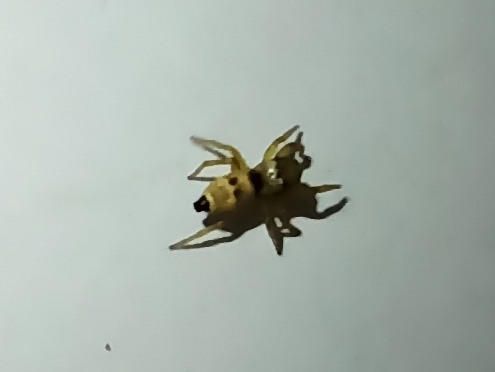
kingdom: Animalia
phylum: Arthropoda
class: Arachnida
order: Araneae
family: Salticidae
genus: Heliophanus
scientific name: Heliophanus
